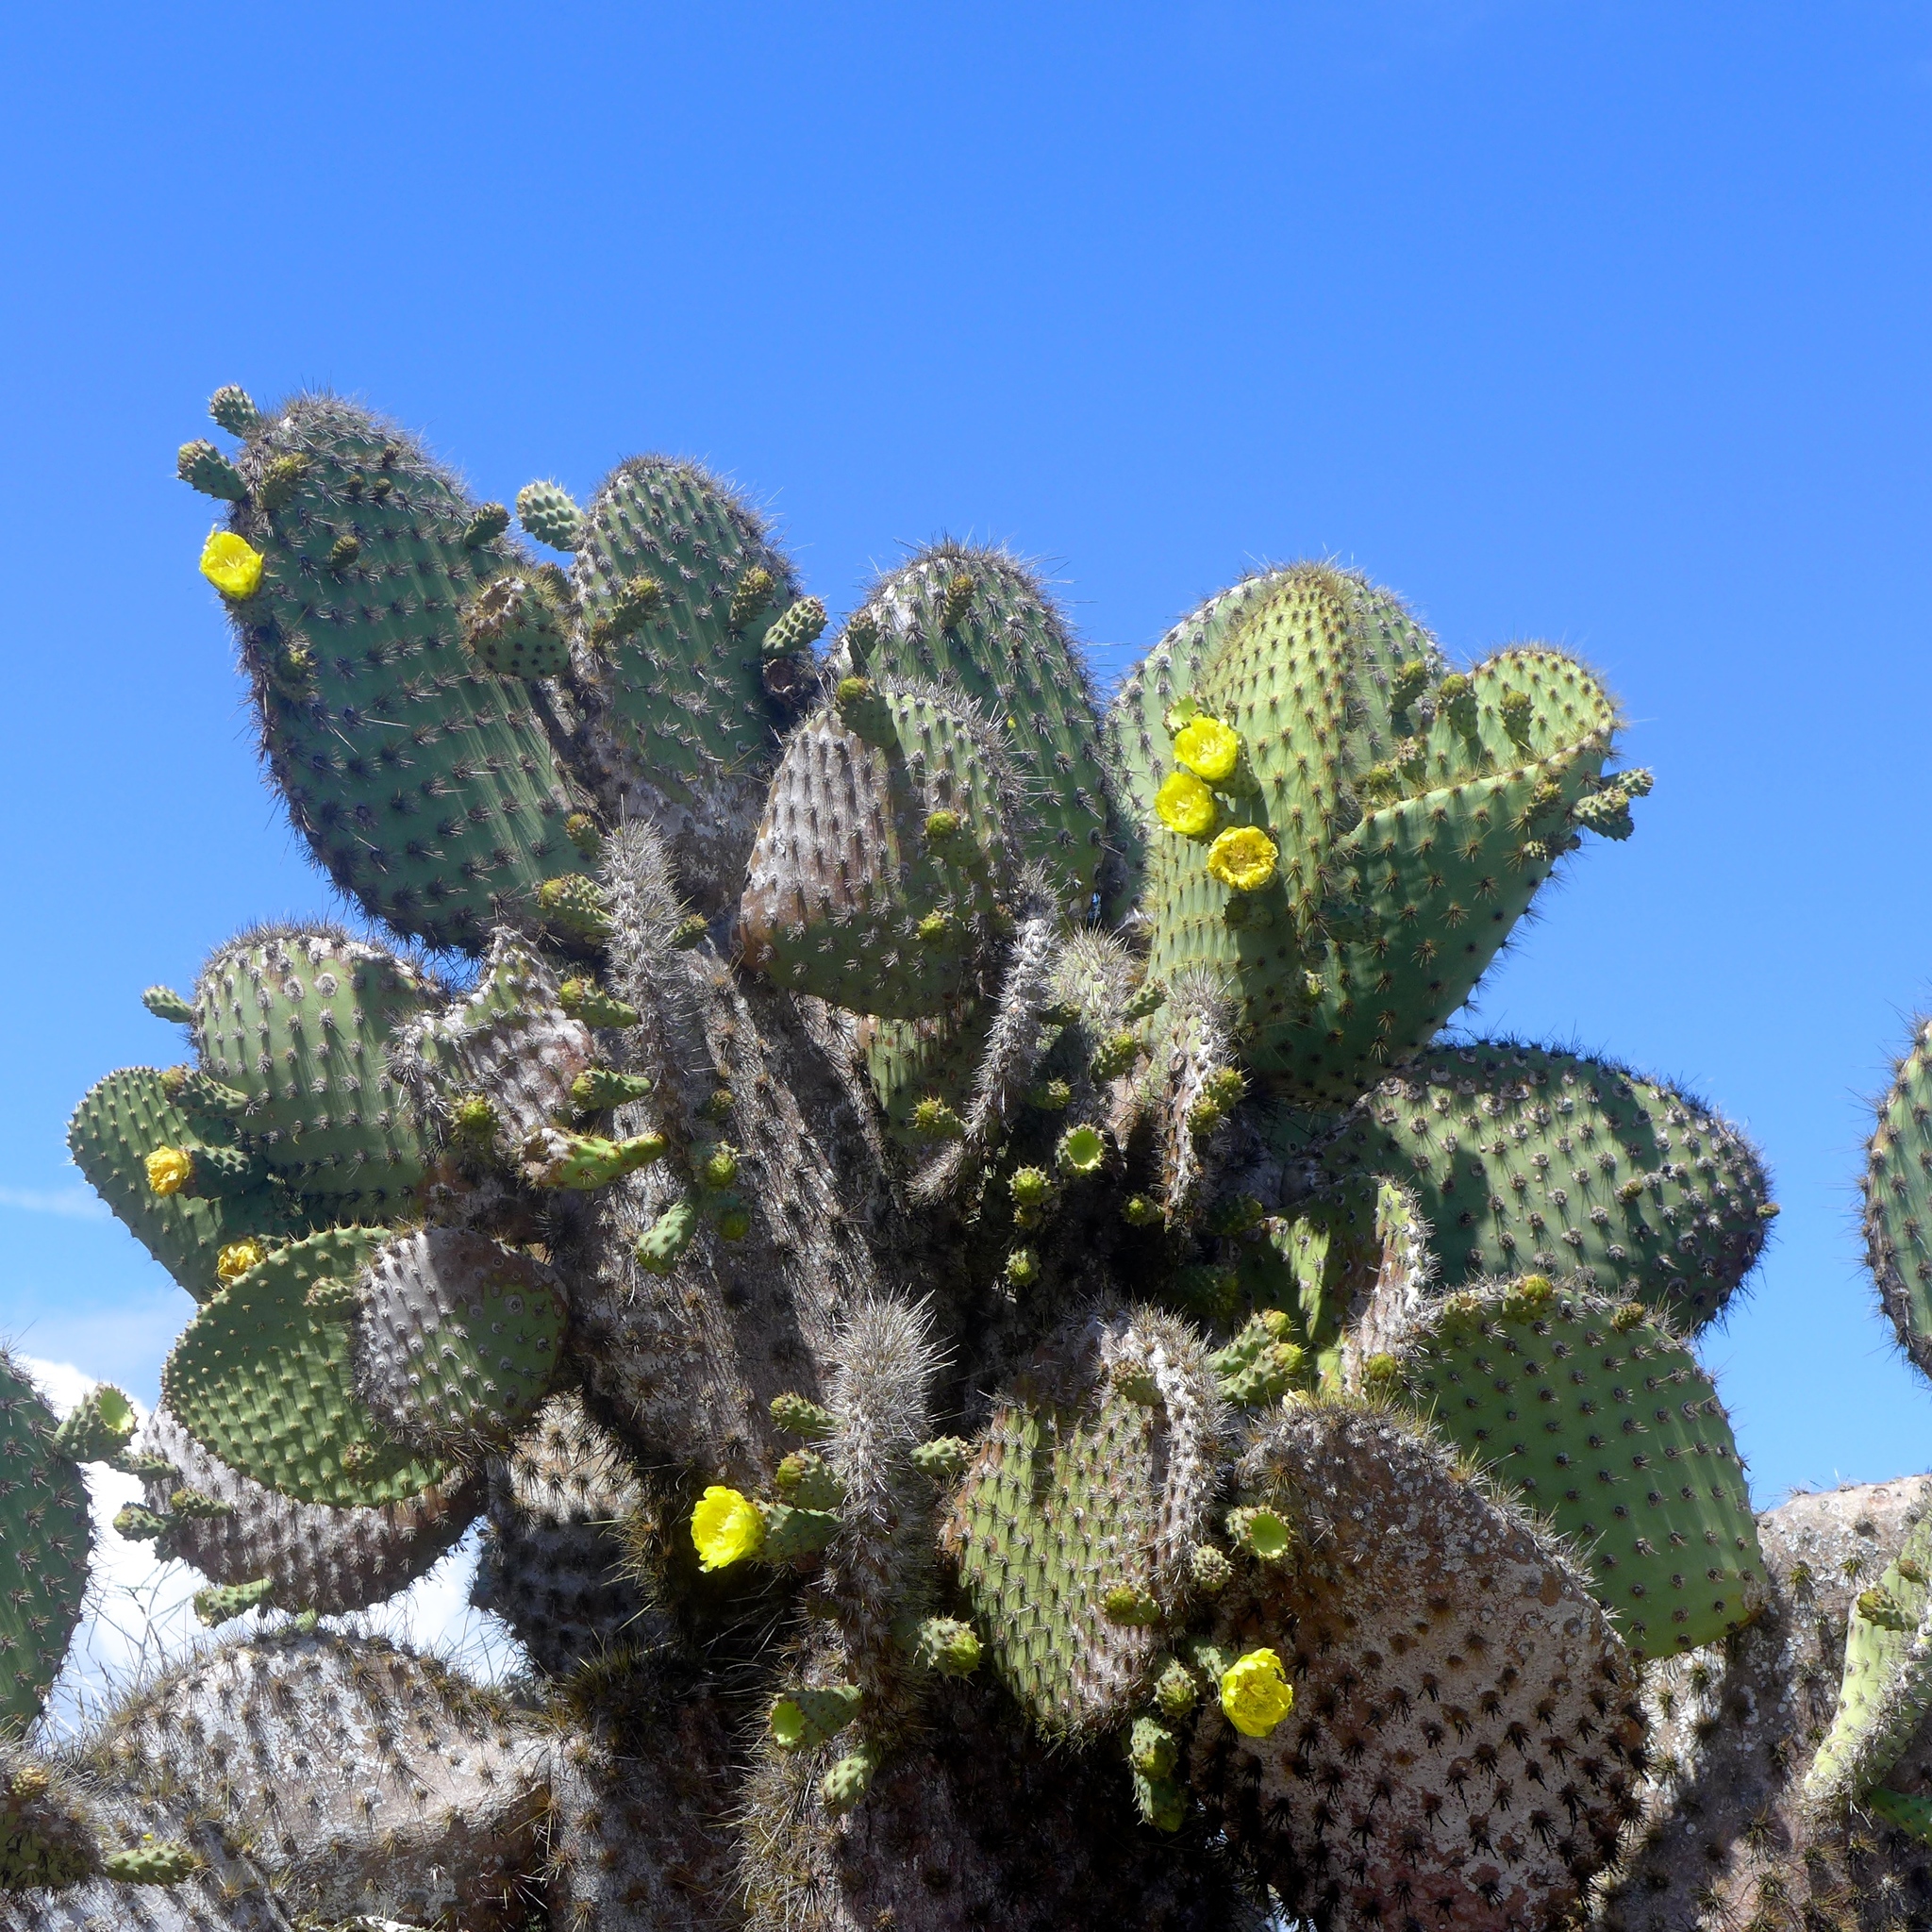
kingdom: Plantae
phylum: Tracheophyta
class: Magnoliopsida
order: Caryophyllales
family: Cactaceae
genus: Opuntia
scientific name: Opuntia galapageia
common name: Galápagos prickly pear
